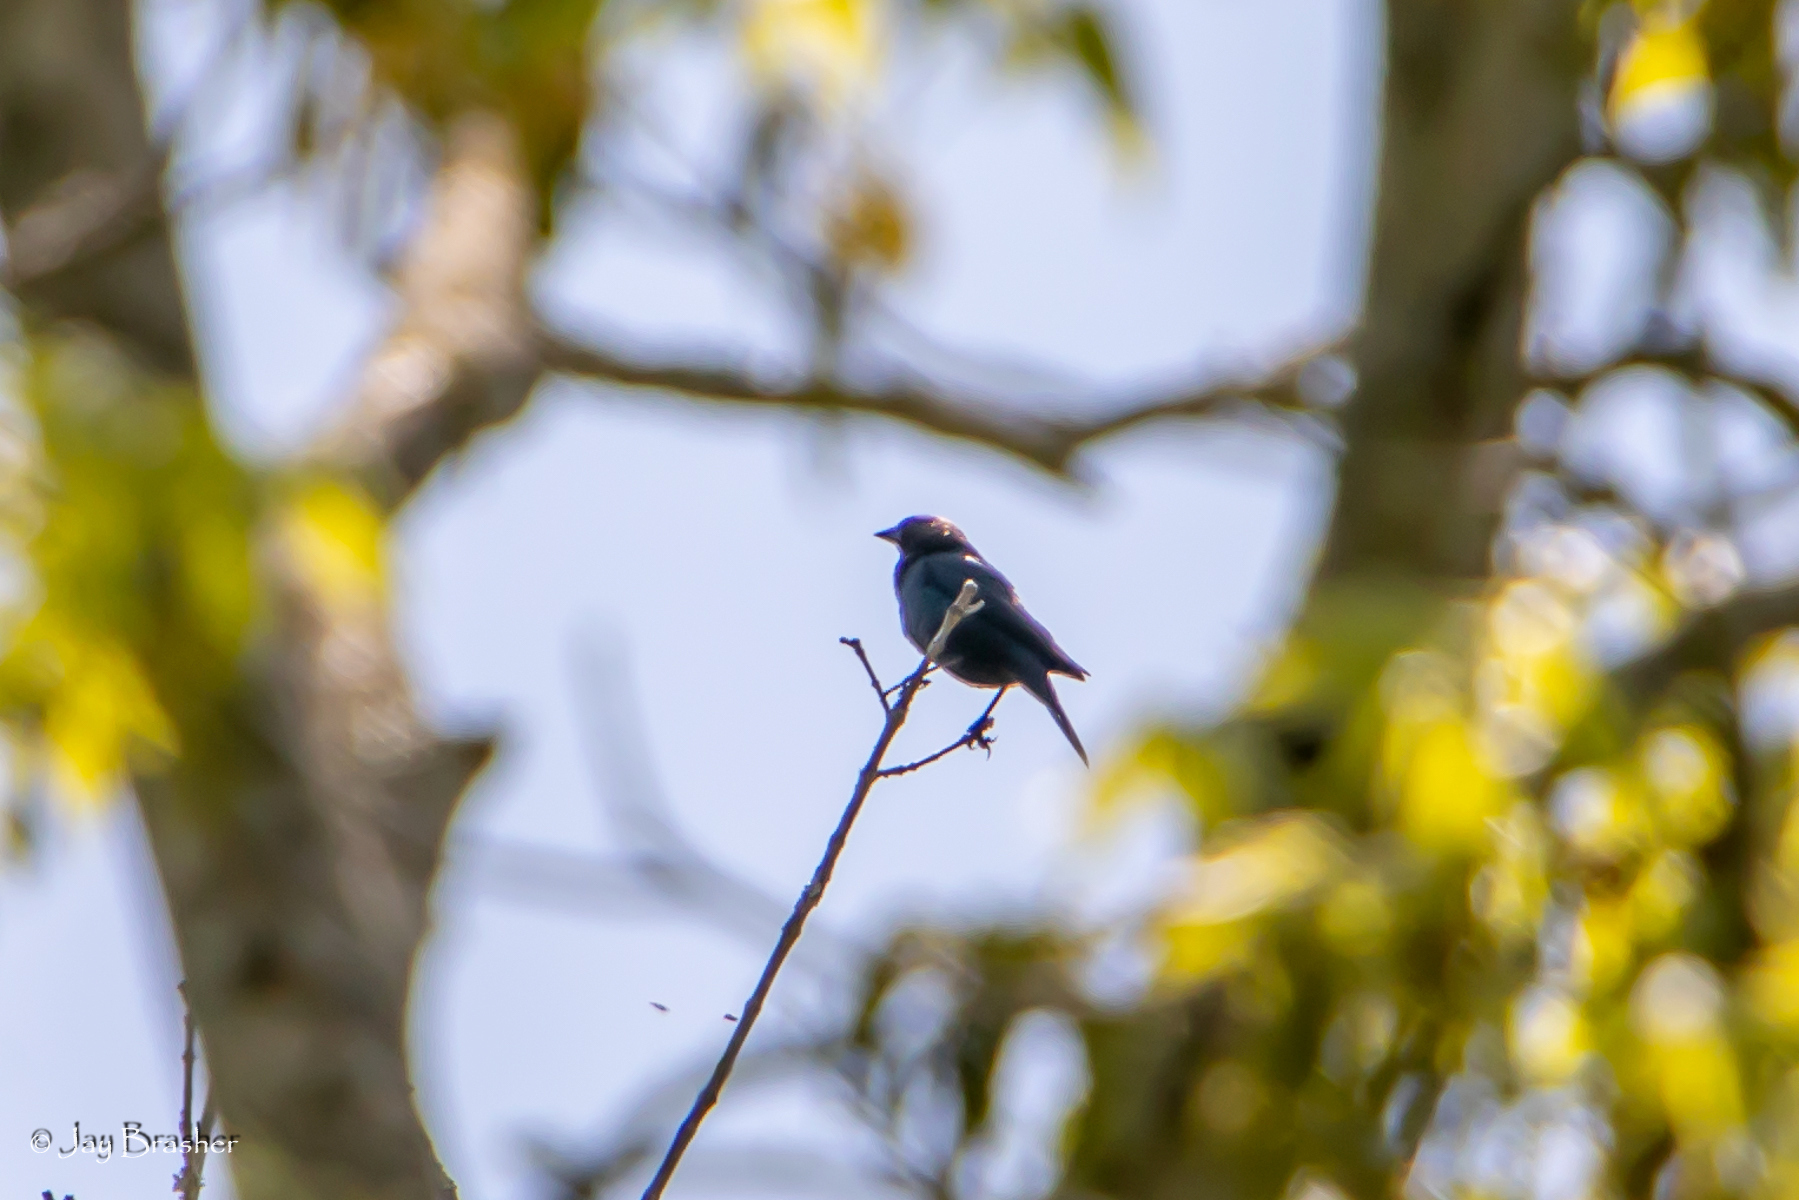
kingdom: Animalia
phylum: Chordata
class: Aves
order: Passeriformes
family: Icteridae
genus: Molothrus
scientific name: Molothrus ater
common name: Brown-headed cowbird
